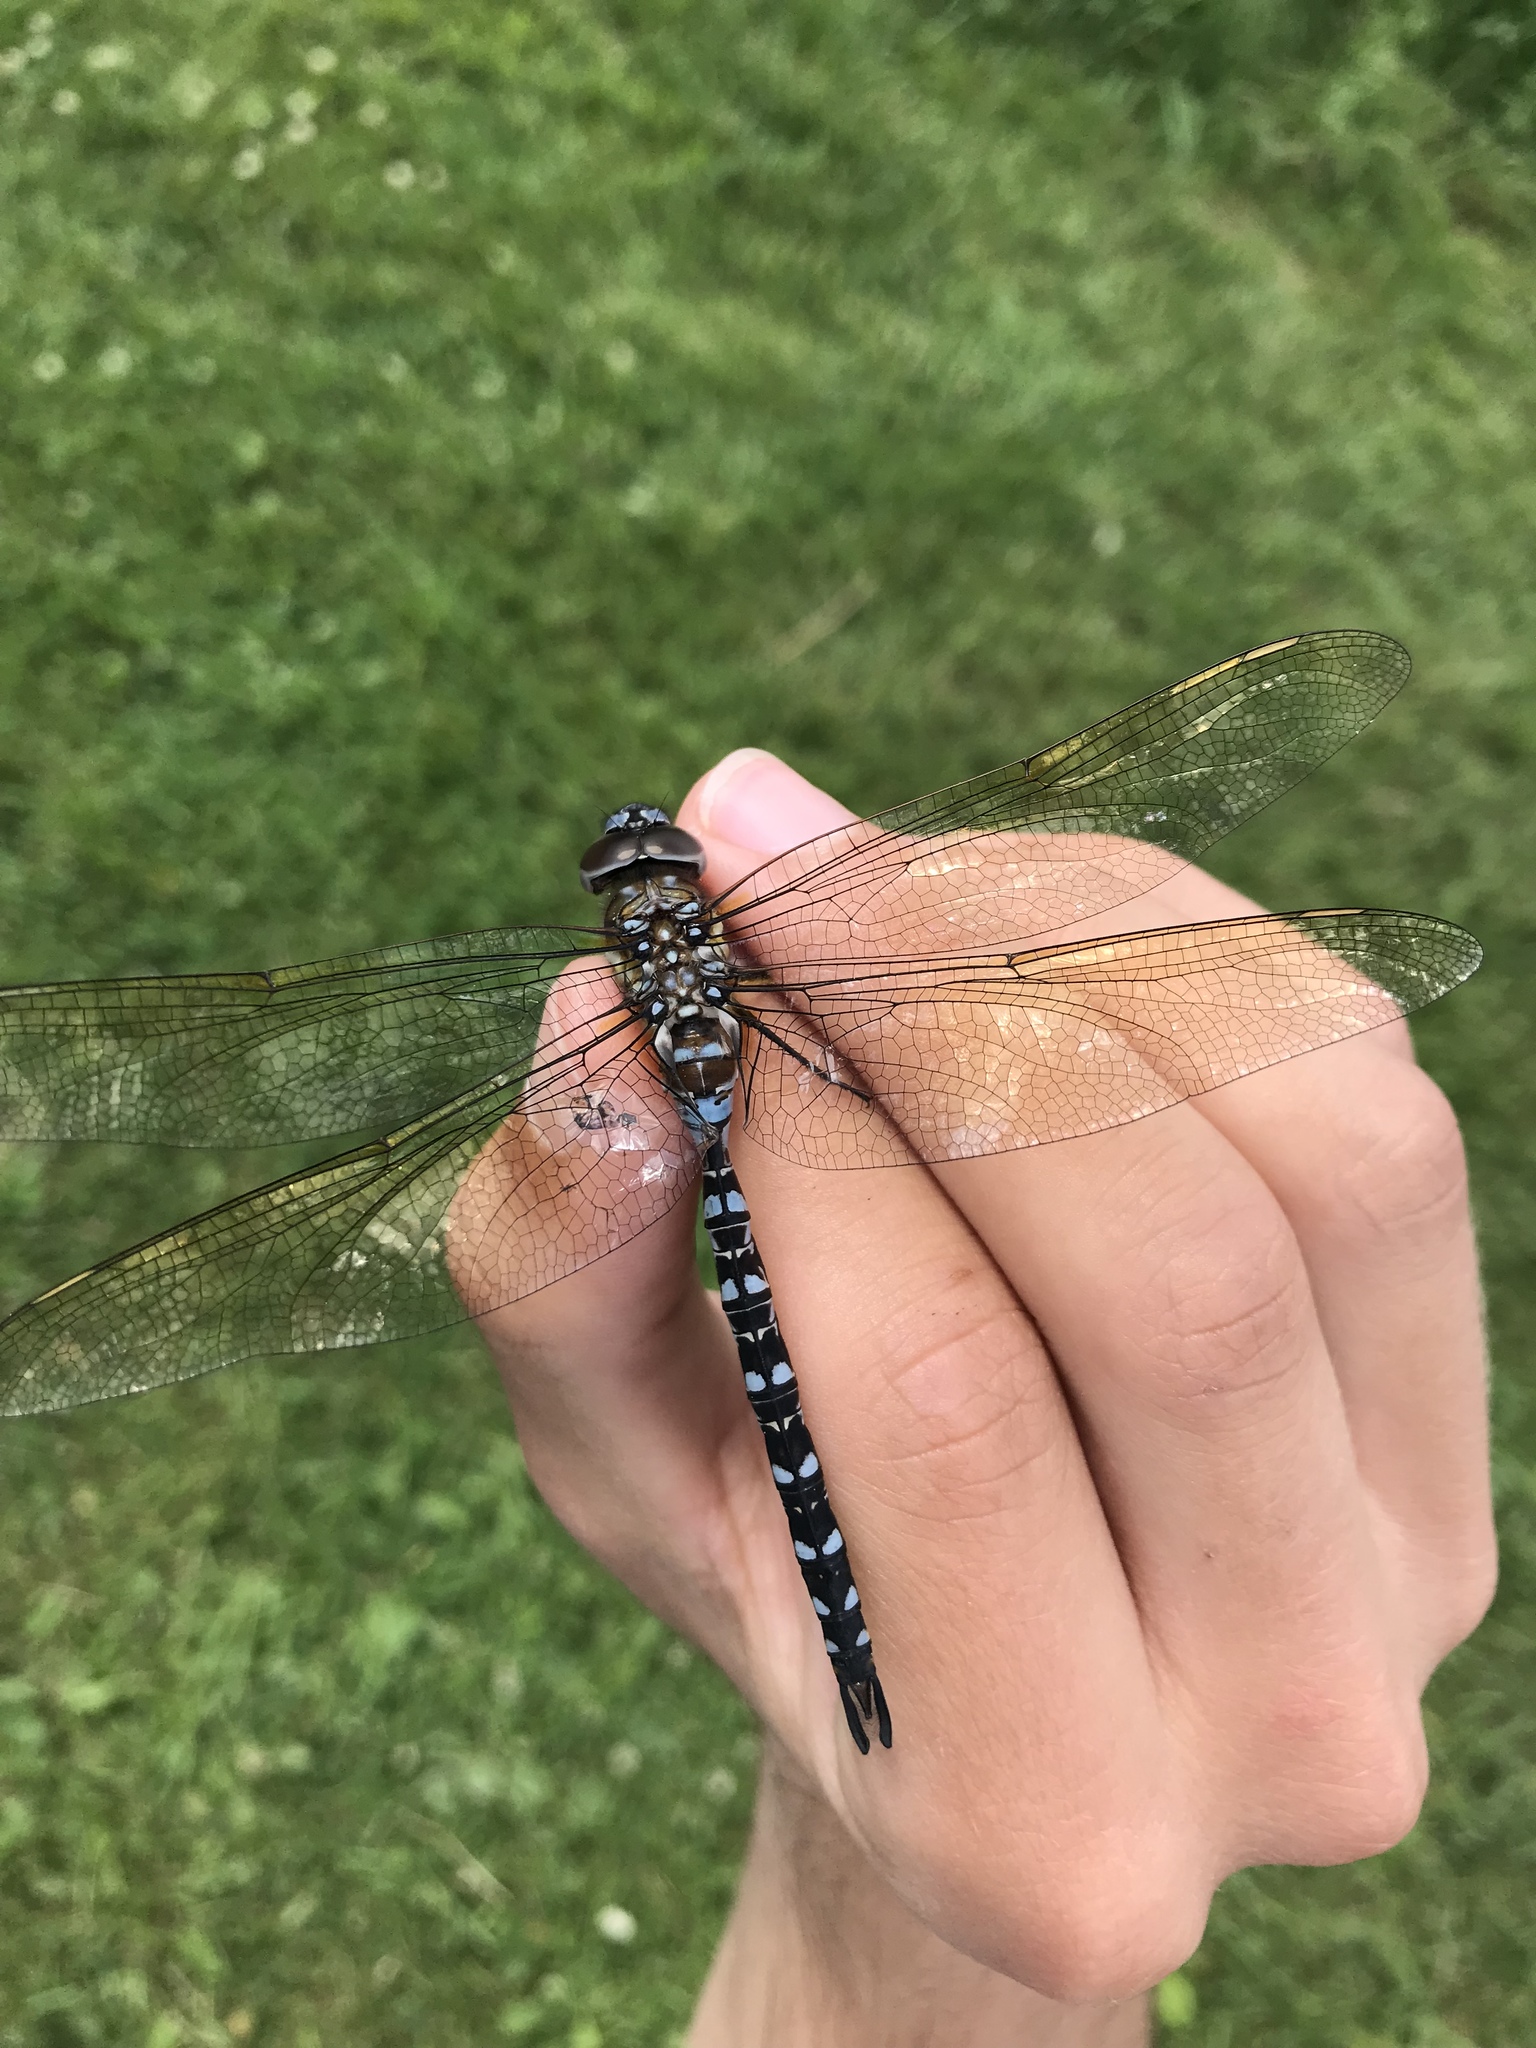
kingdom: Animalia
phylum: Arthropoda
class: Insecta
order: Odonata
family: Aeshnidae
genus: Rhionaeschna
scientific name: Rhionaeschna mutata
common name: Spatterdock darner
